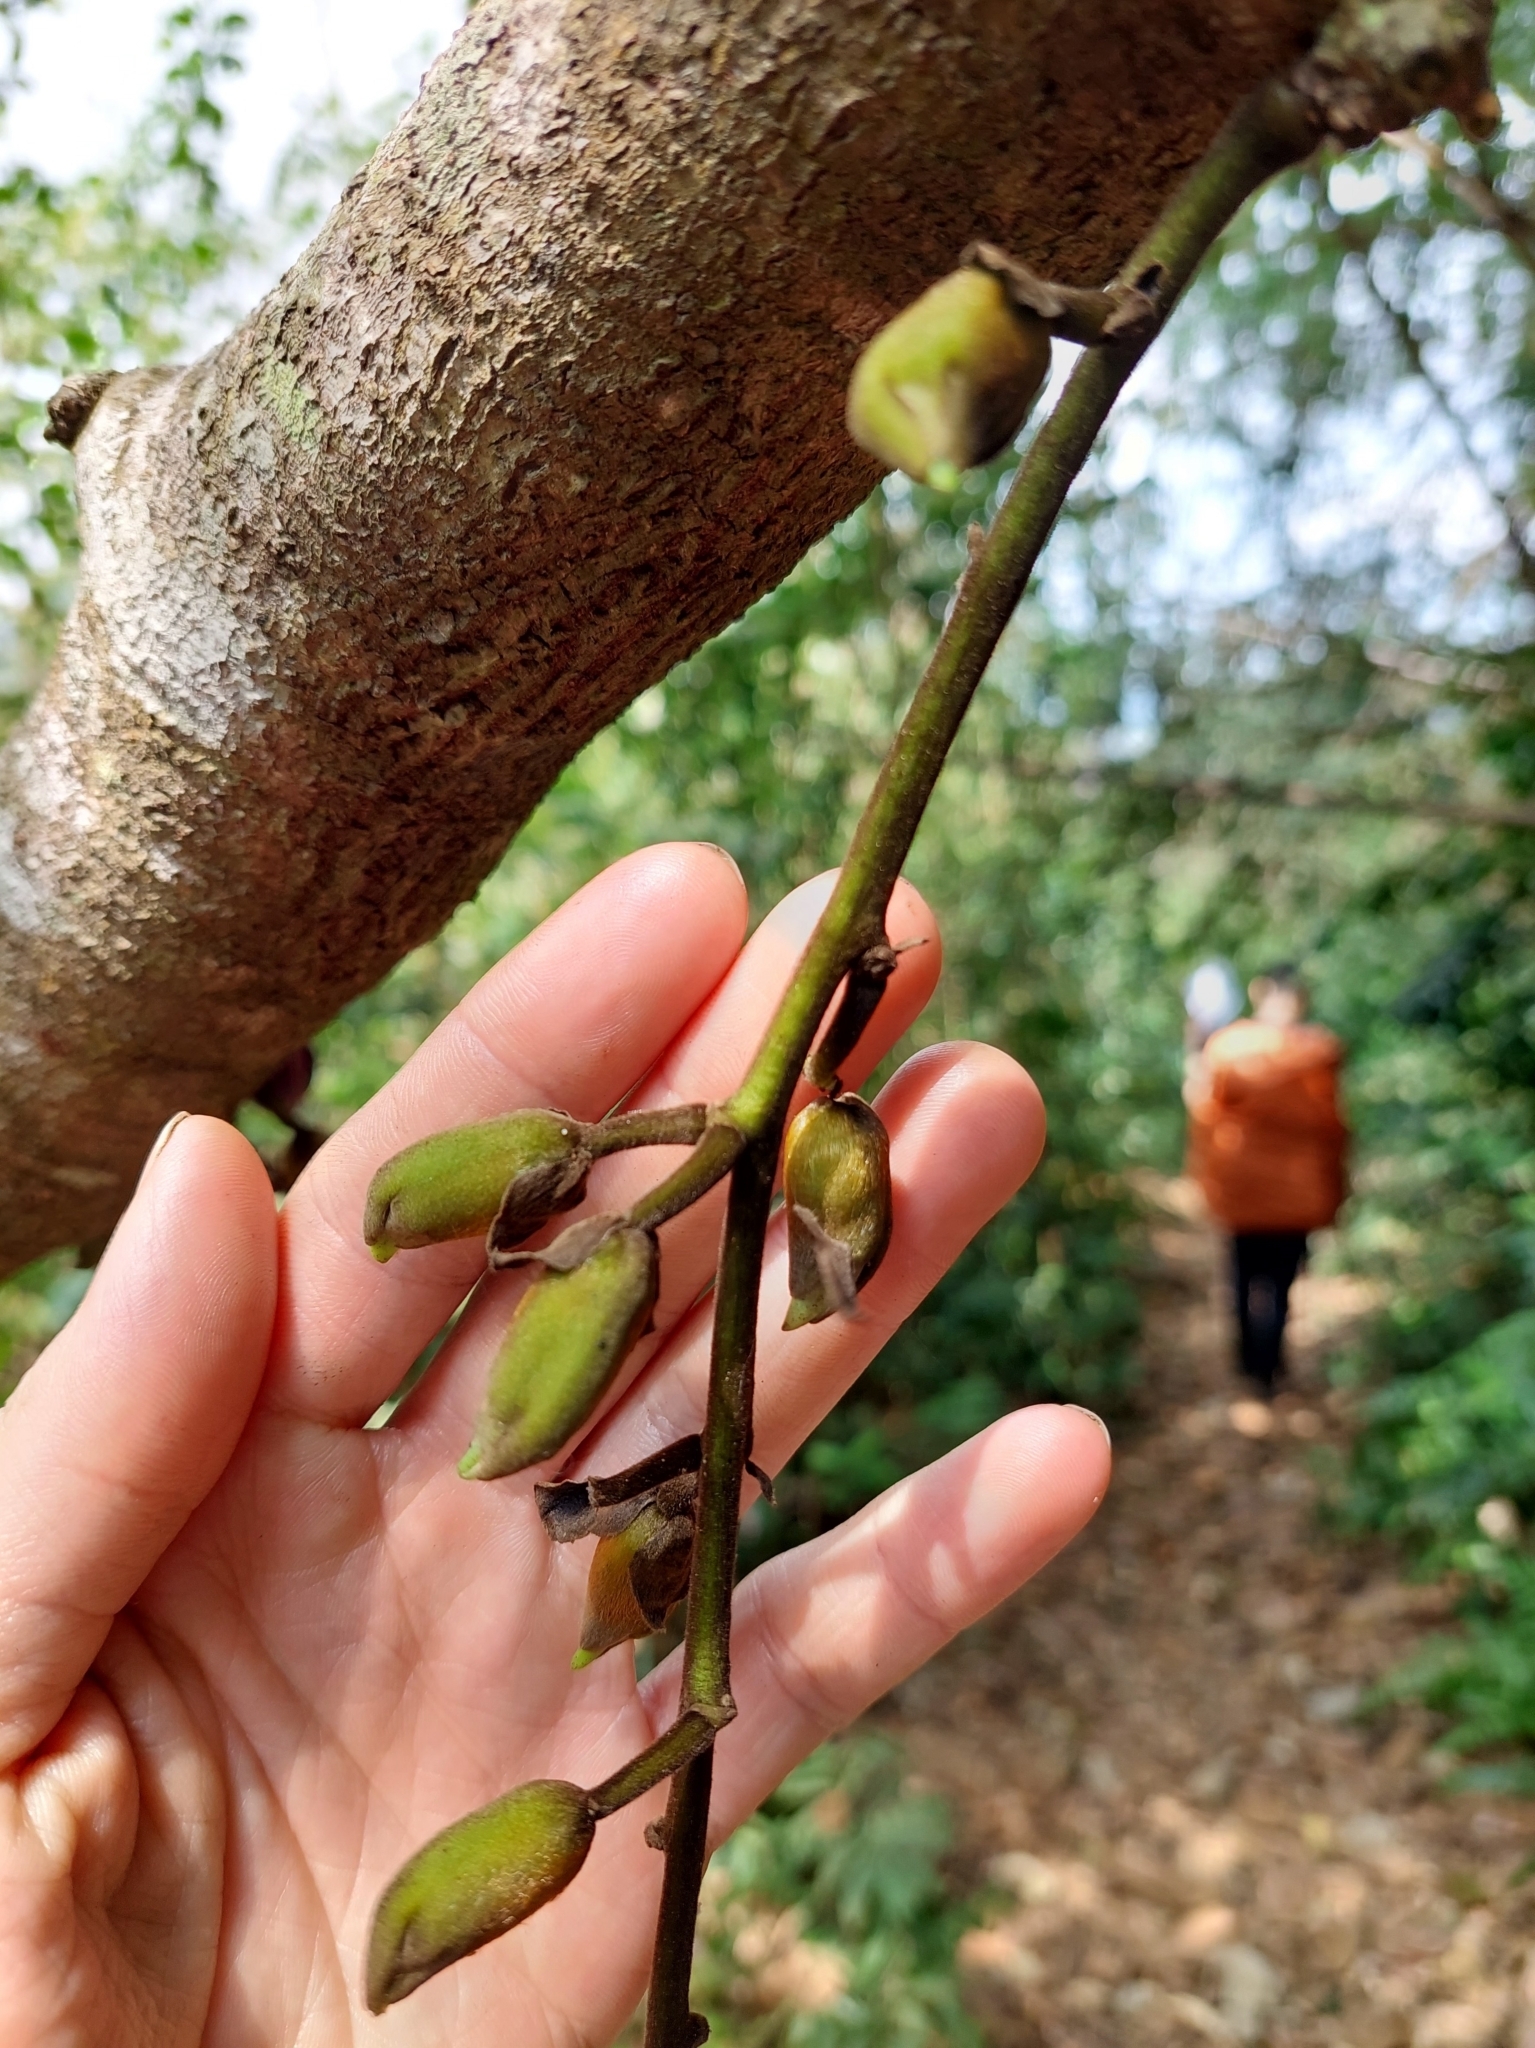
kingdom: Plantae
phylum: Tracheophyta
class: Magnoliopsida
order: Fabales
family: Fabaceae
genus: Mucuna
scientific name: Mucuna macrocarpa
